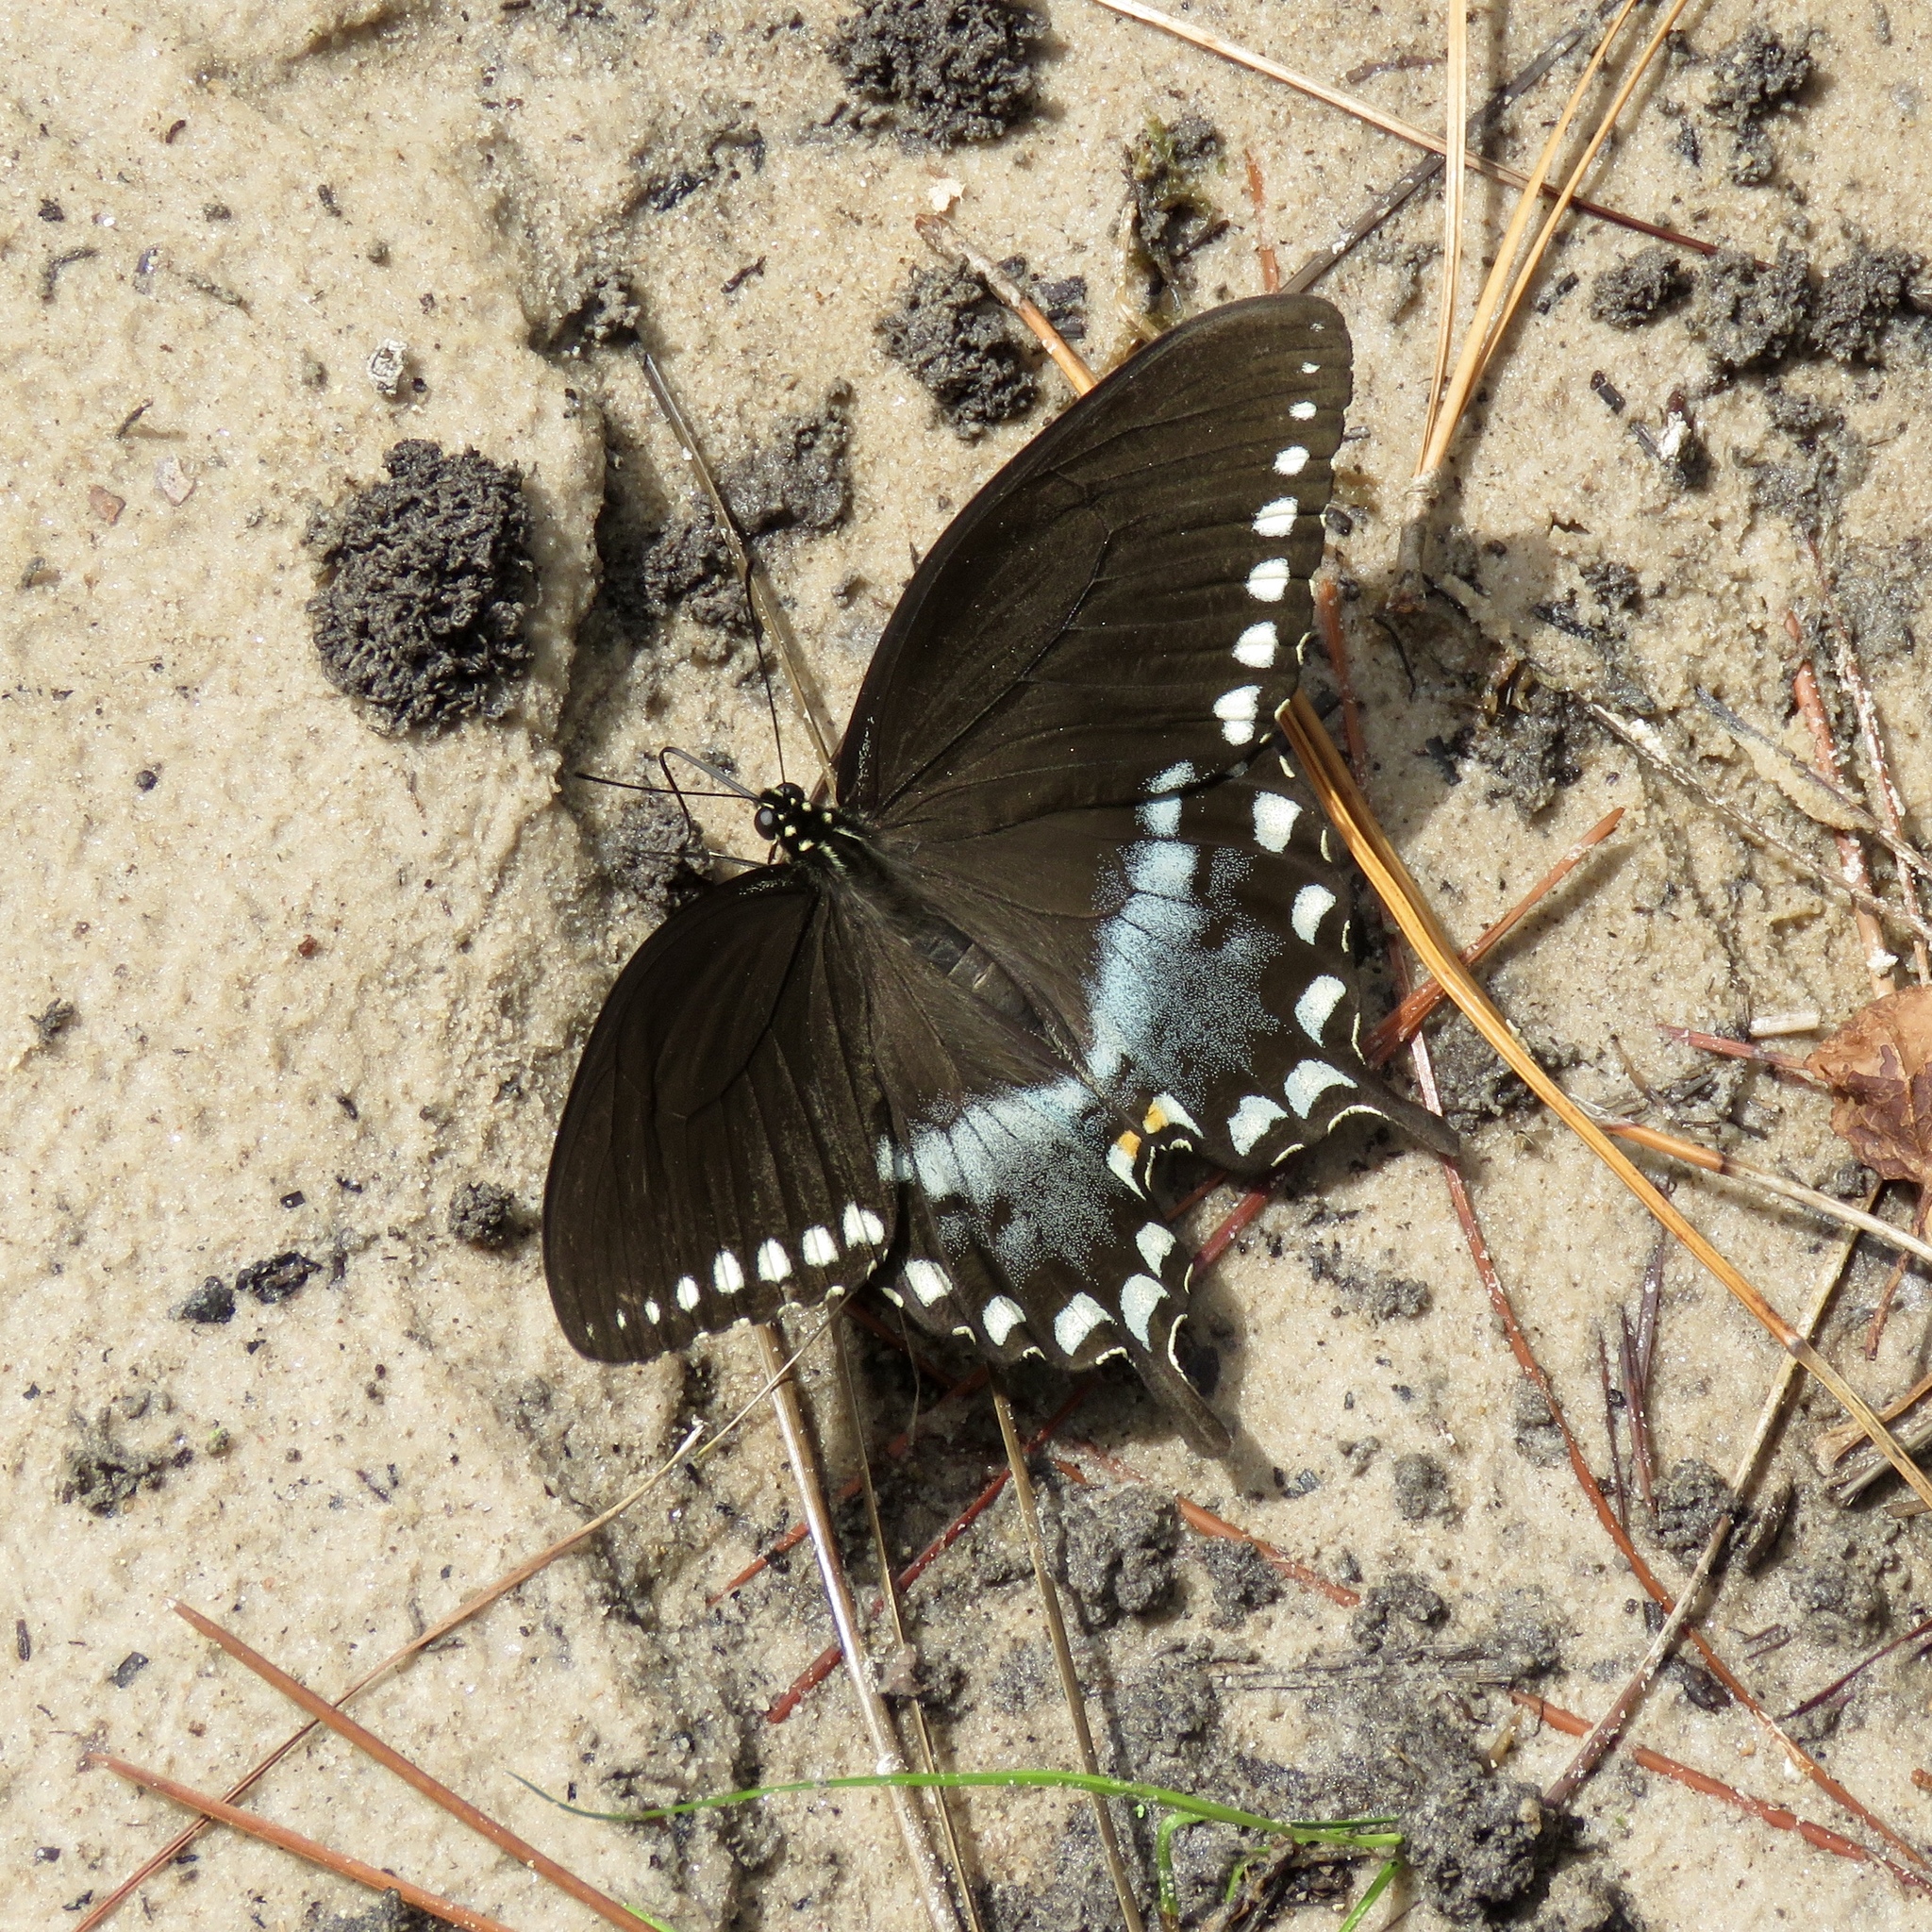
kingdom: Animalia
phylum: Arthropoda
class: Insecta
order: Lepidoptera
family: Papilionidae
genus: Papilio
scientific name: Papilio troilus
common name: Spicebush swallowtail
